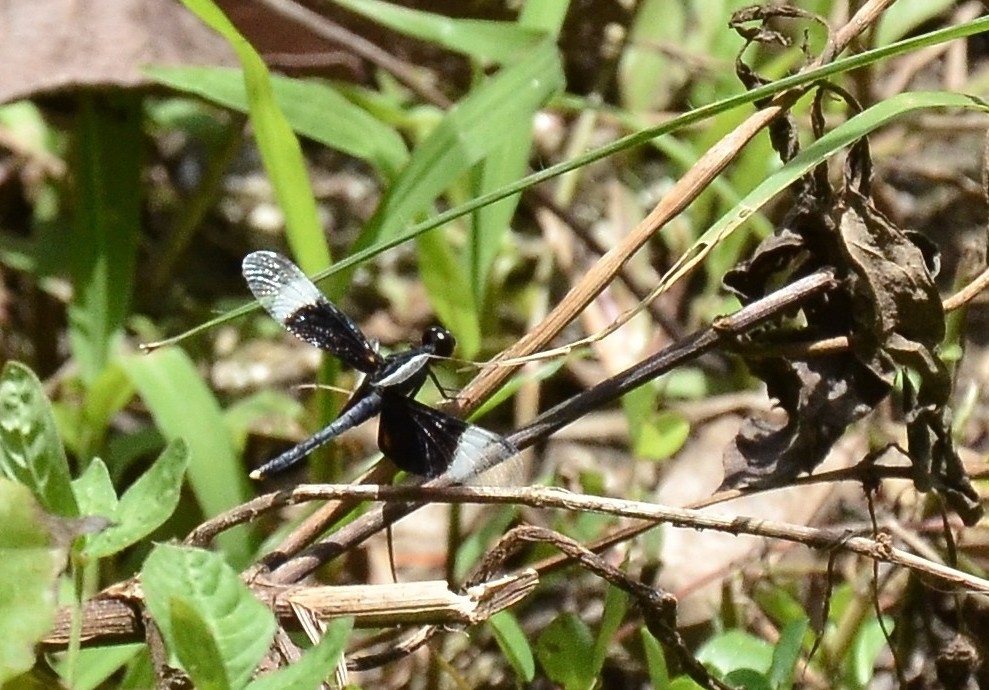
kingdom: Animalia
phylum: Arthropoda
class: Insecta
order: Odonata
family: Libellulidae
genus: Neurothemis
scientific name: Neurothemis tullia
